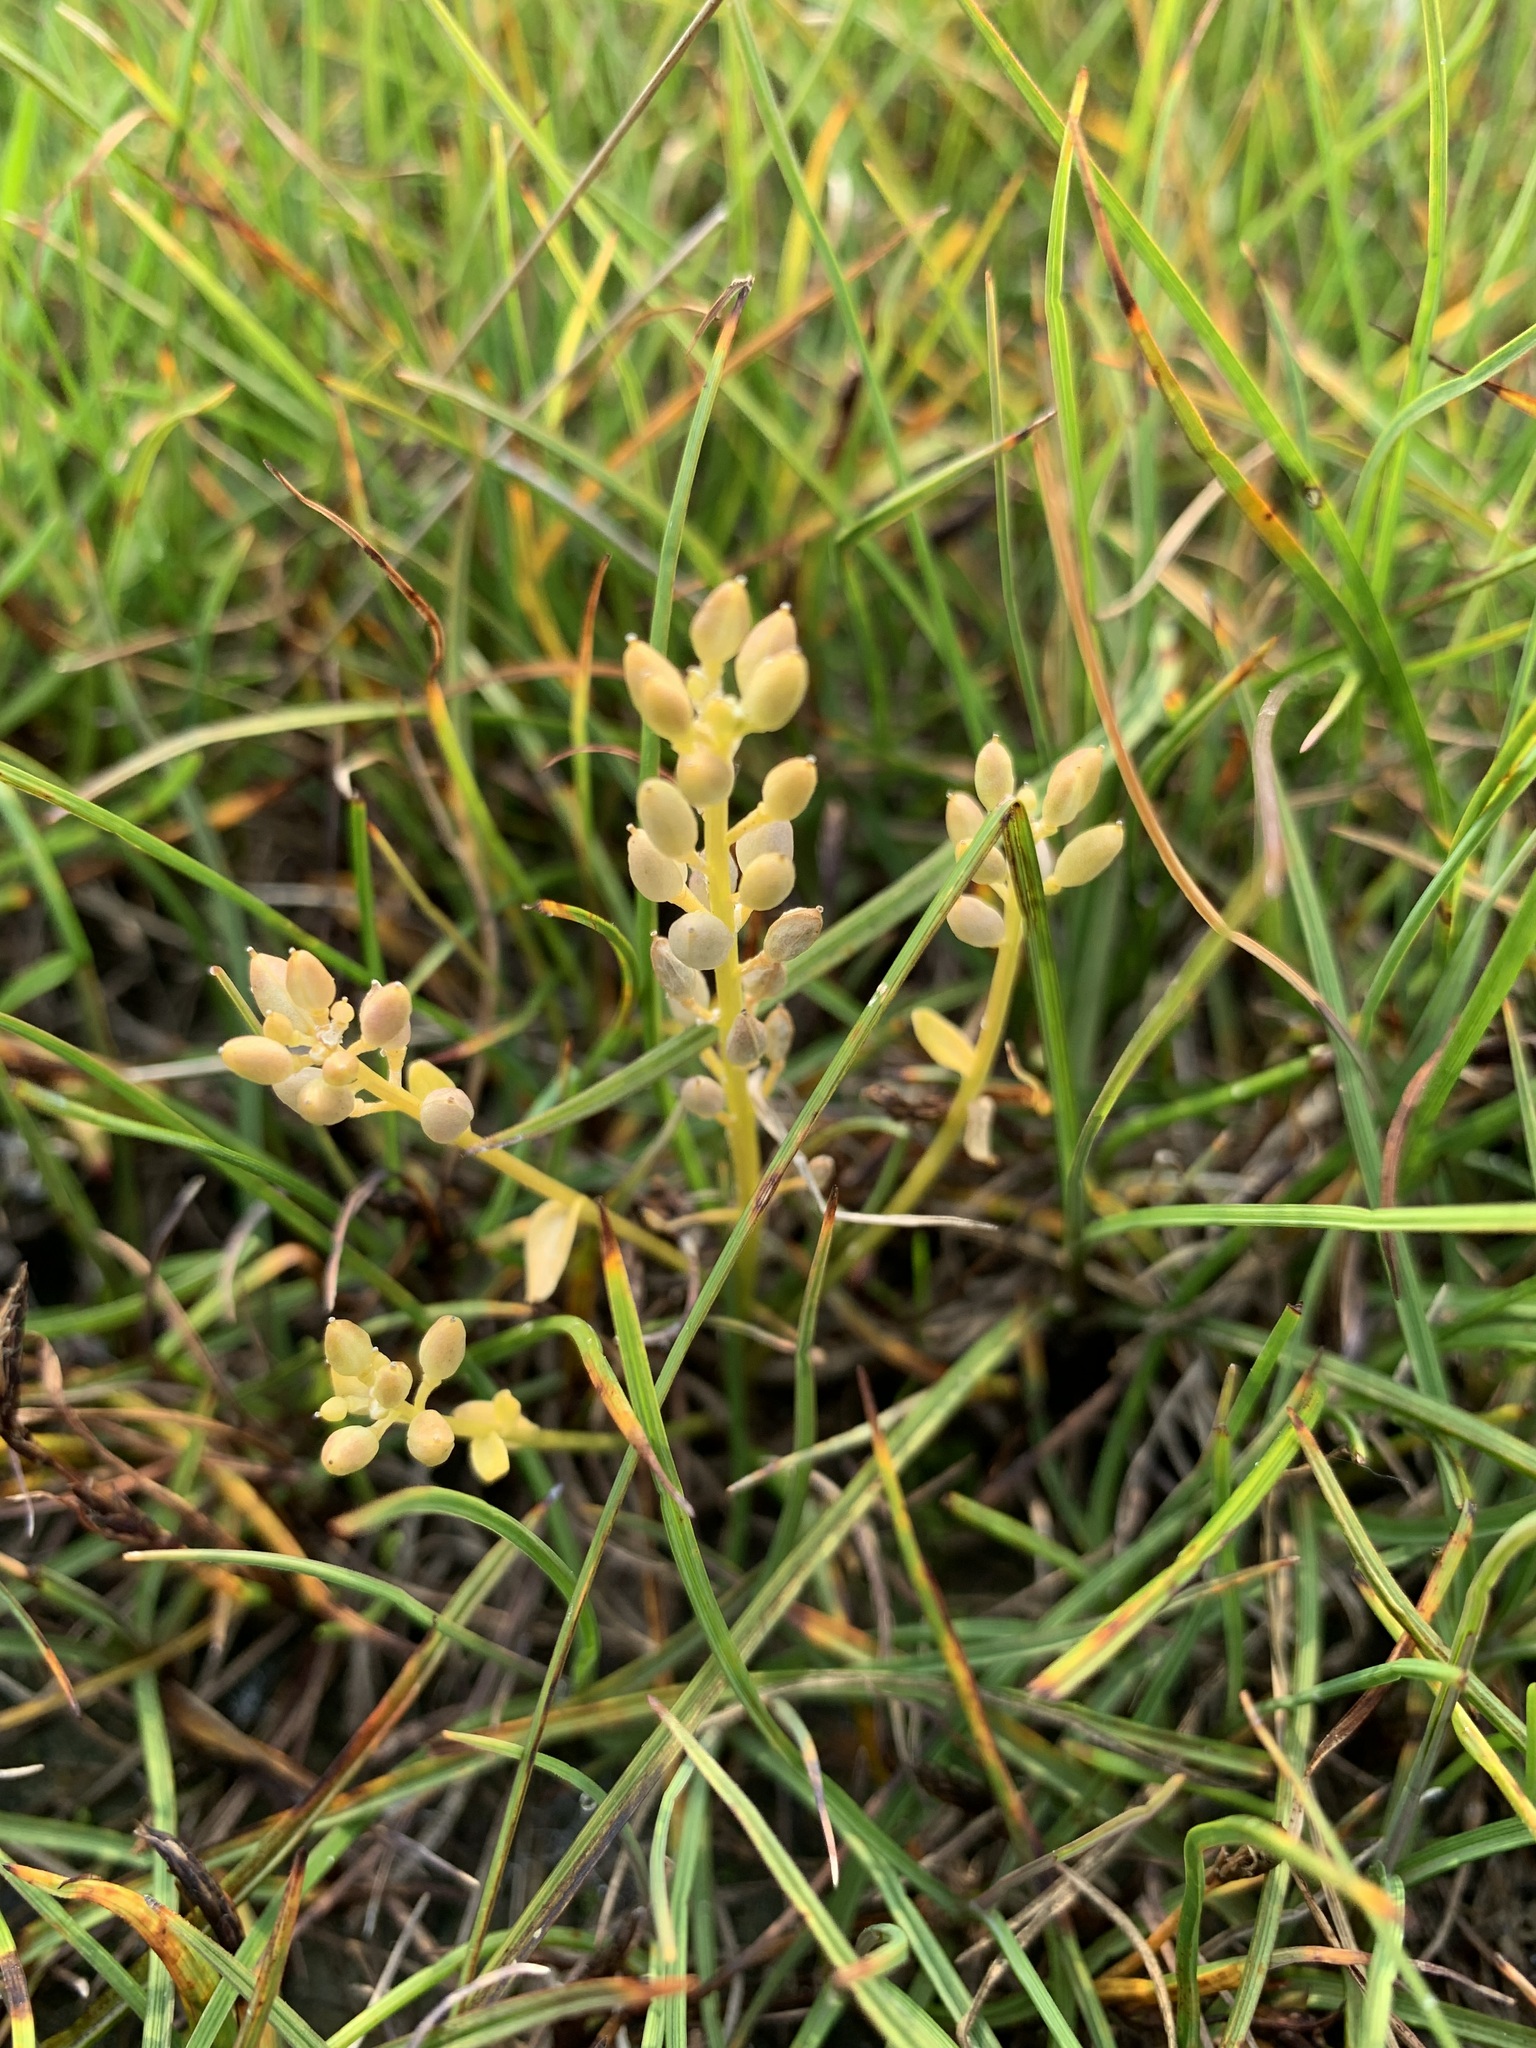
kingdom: Plantae
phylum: Tracheophyta
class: Magnoliopsida
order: Brassicales
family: Brassicaceae
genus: Cochlearia
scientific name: Cochlearia groenlandica
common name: Danish scurvygrass
